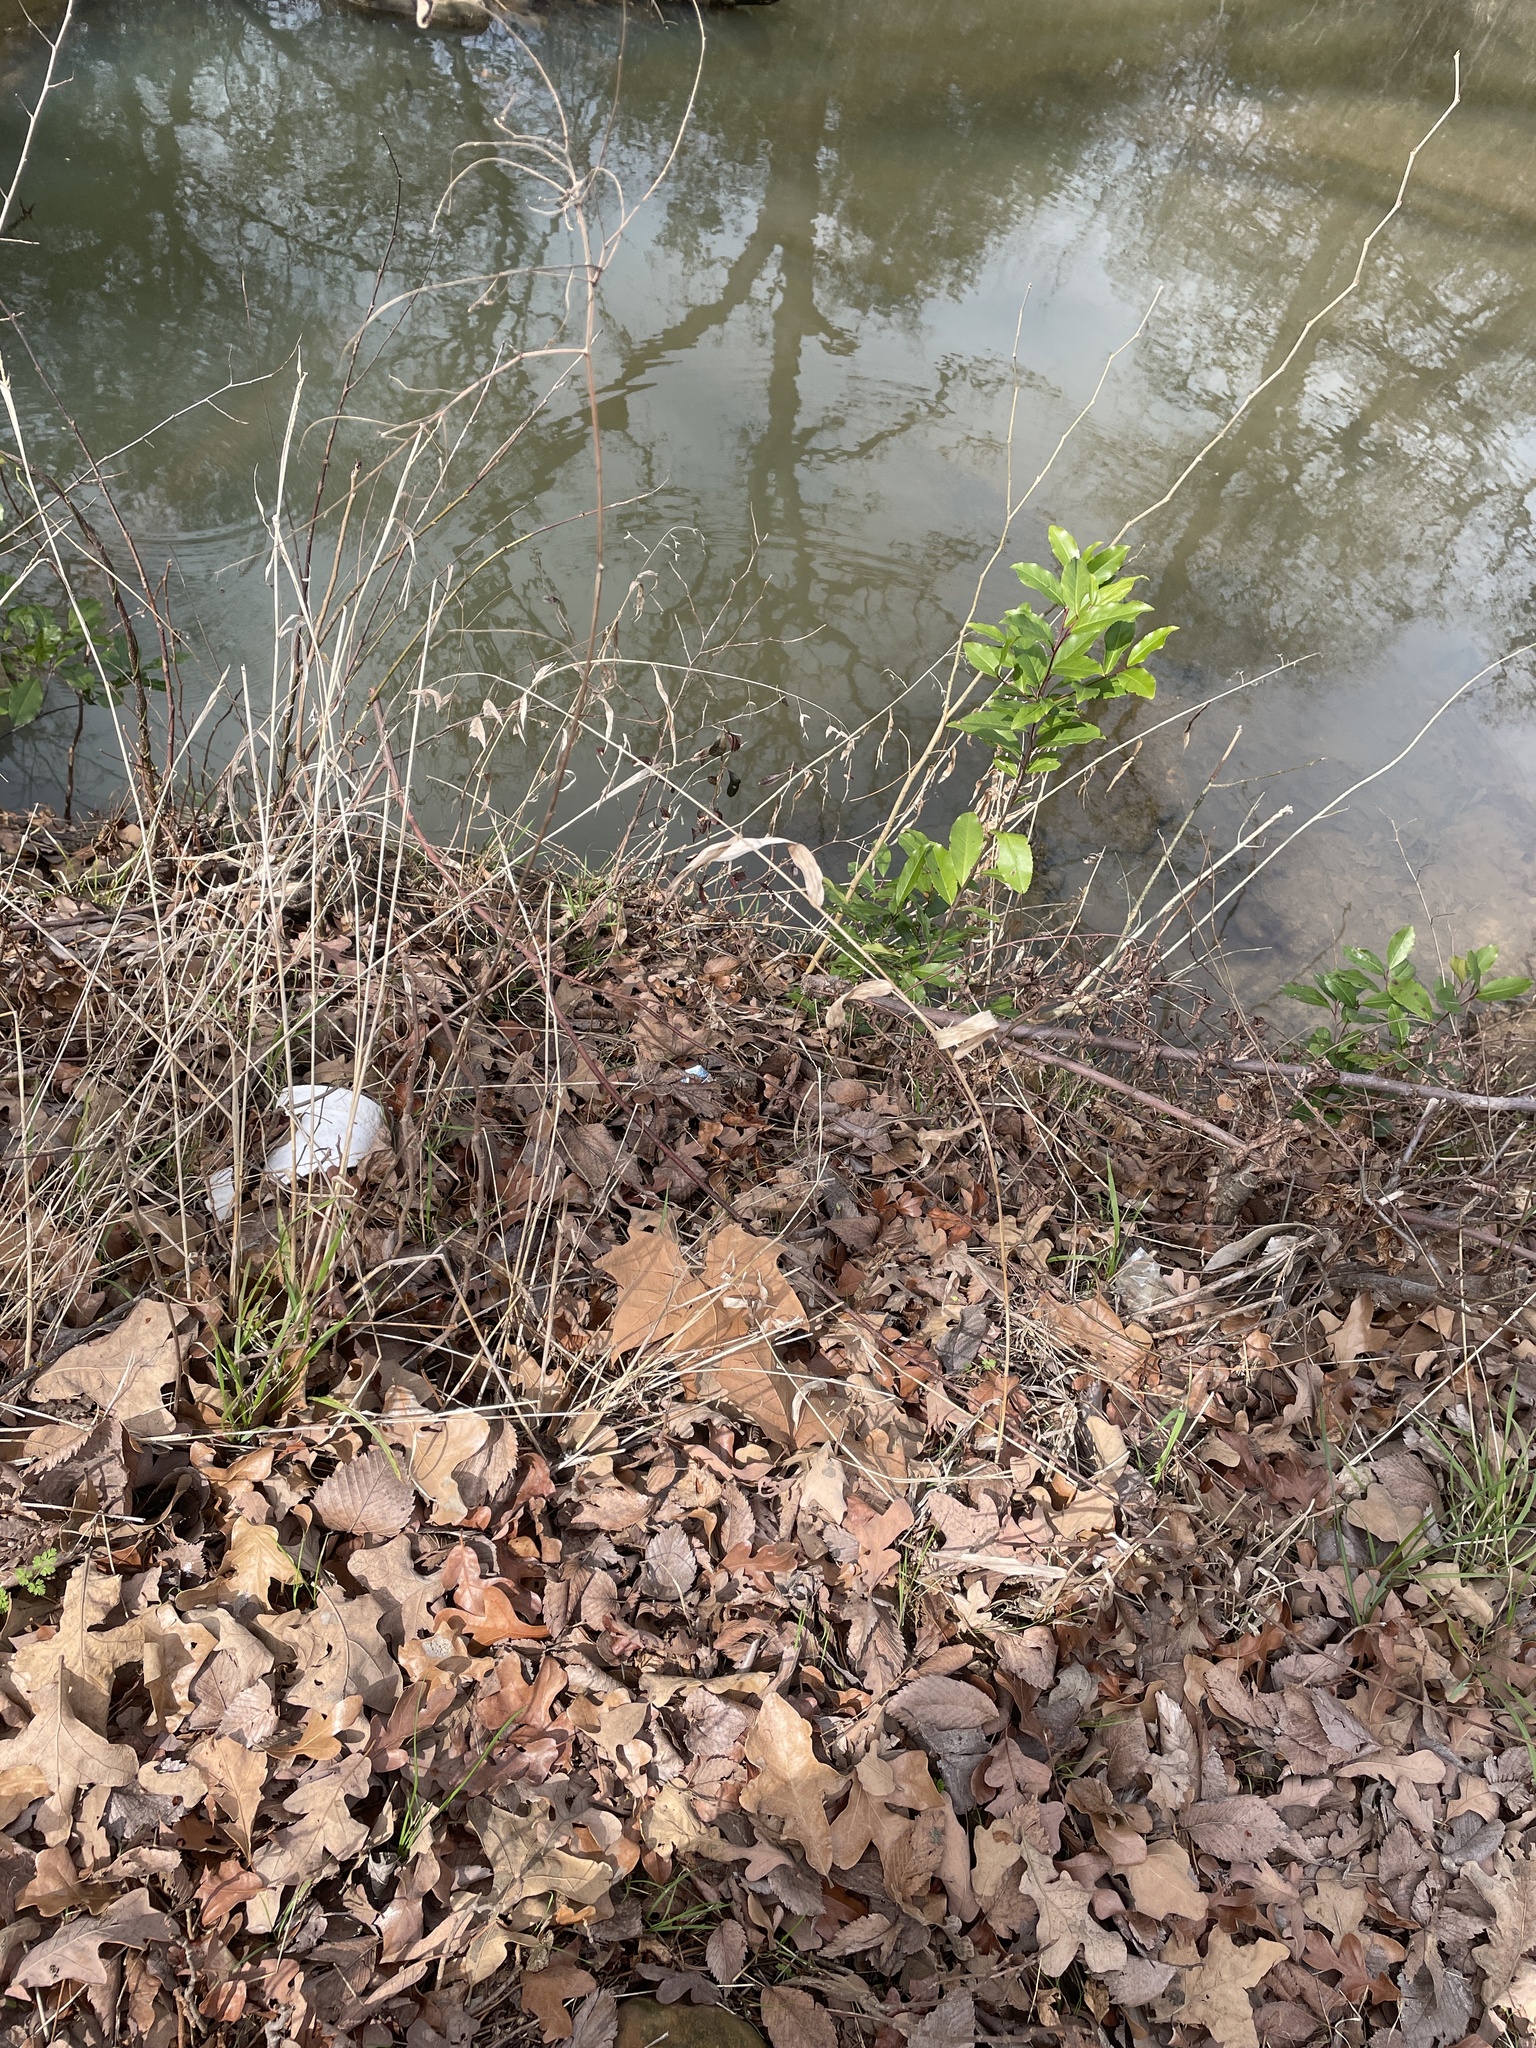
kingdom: Plantae
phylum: Tracheophyta
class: Liliopsida
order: Poales
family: Poaceae
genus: Chasmanthium
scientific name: Chasmanthium latifolium
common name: Broad-leaved chasmanthium
